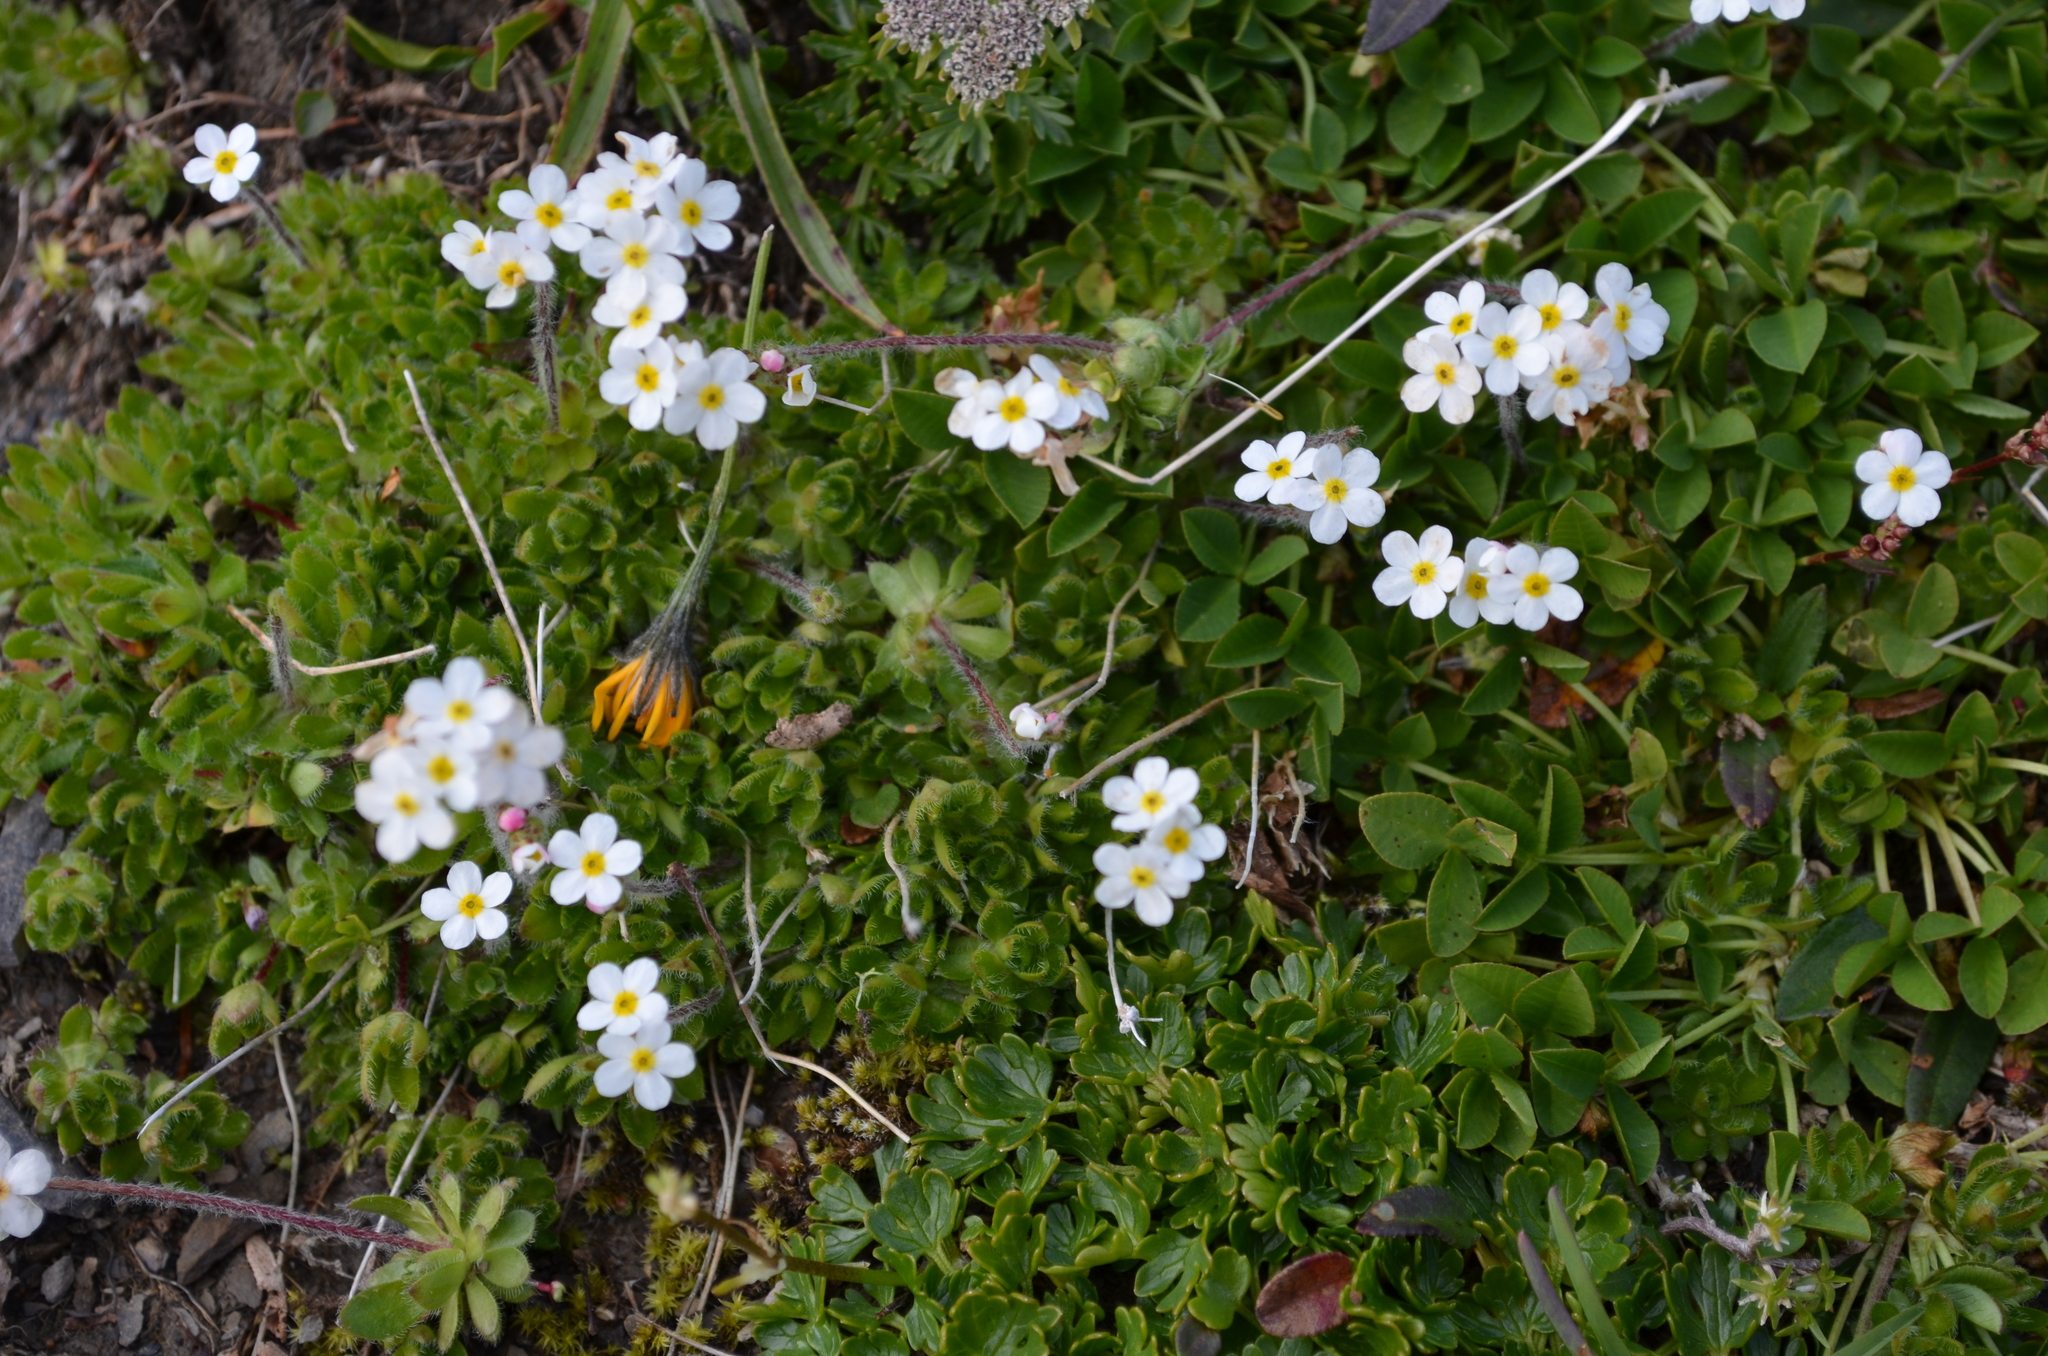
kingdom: Plantae
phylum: Tracheophyta
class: Magnoliopsida
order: Ericales
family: Primulaceae
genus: Androsace
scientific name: Androsace chamaejasme
